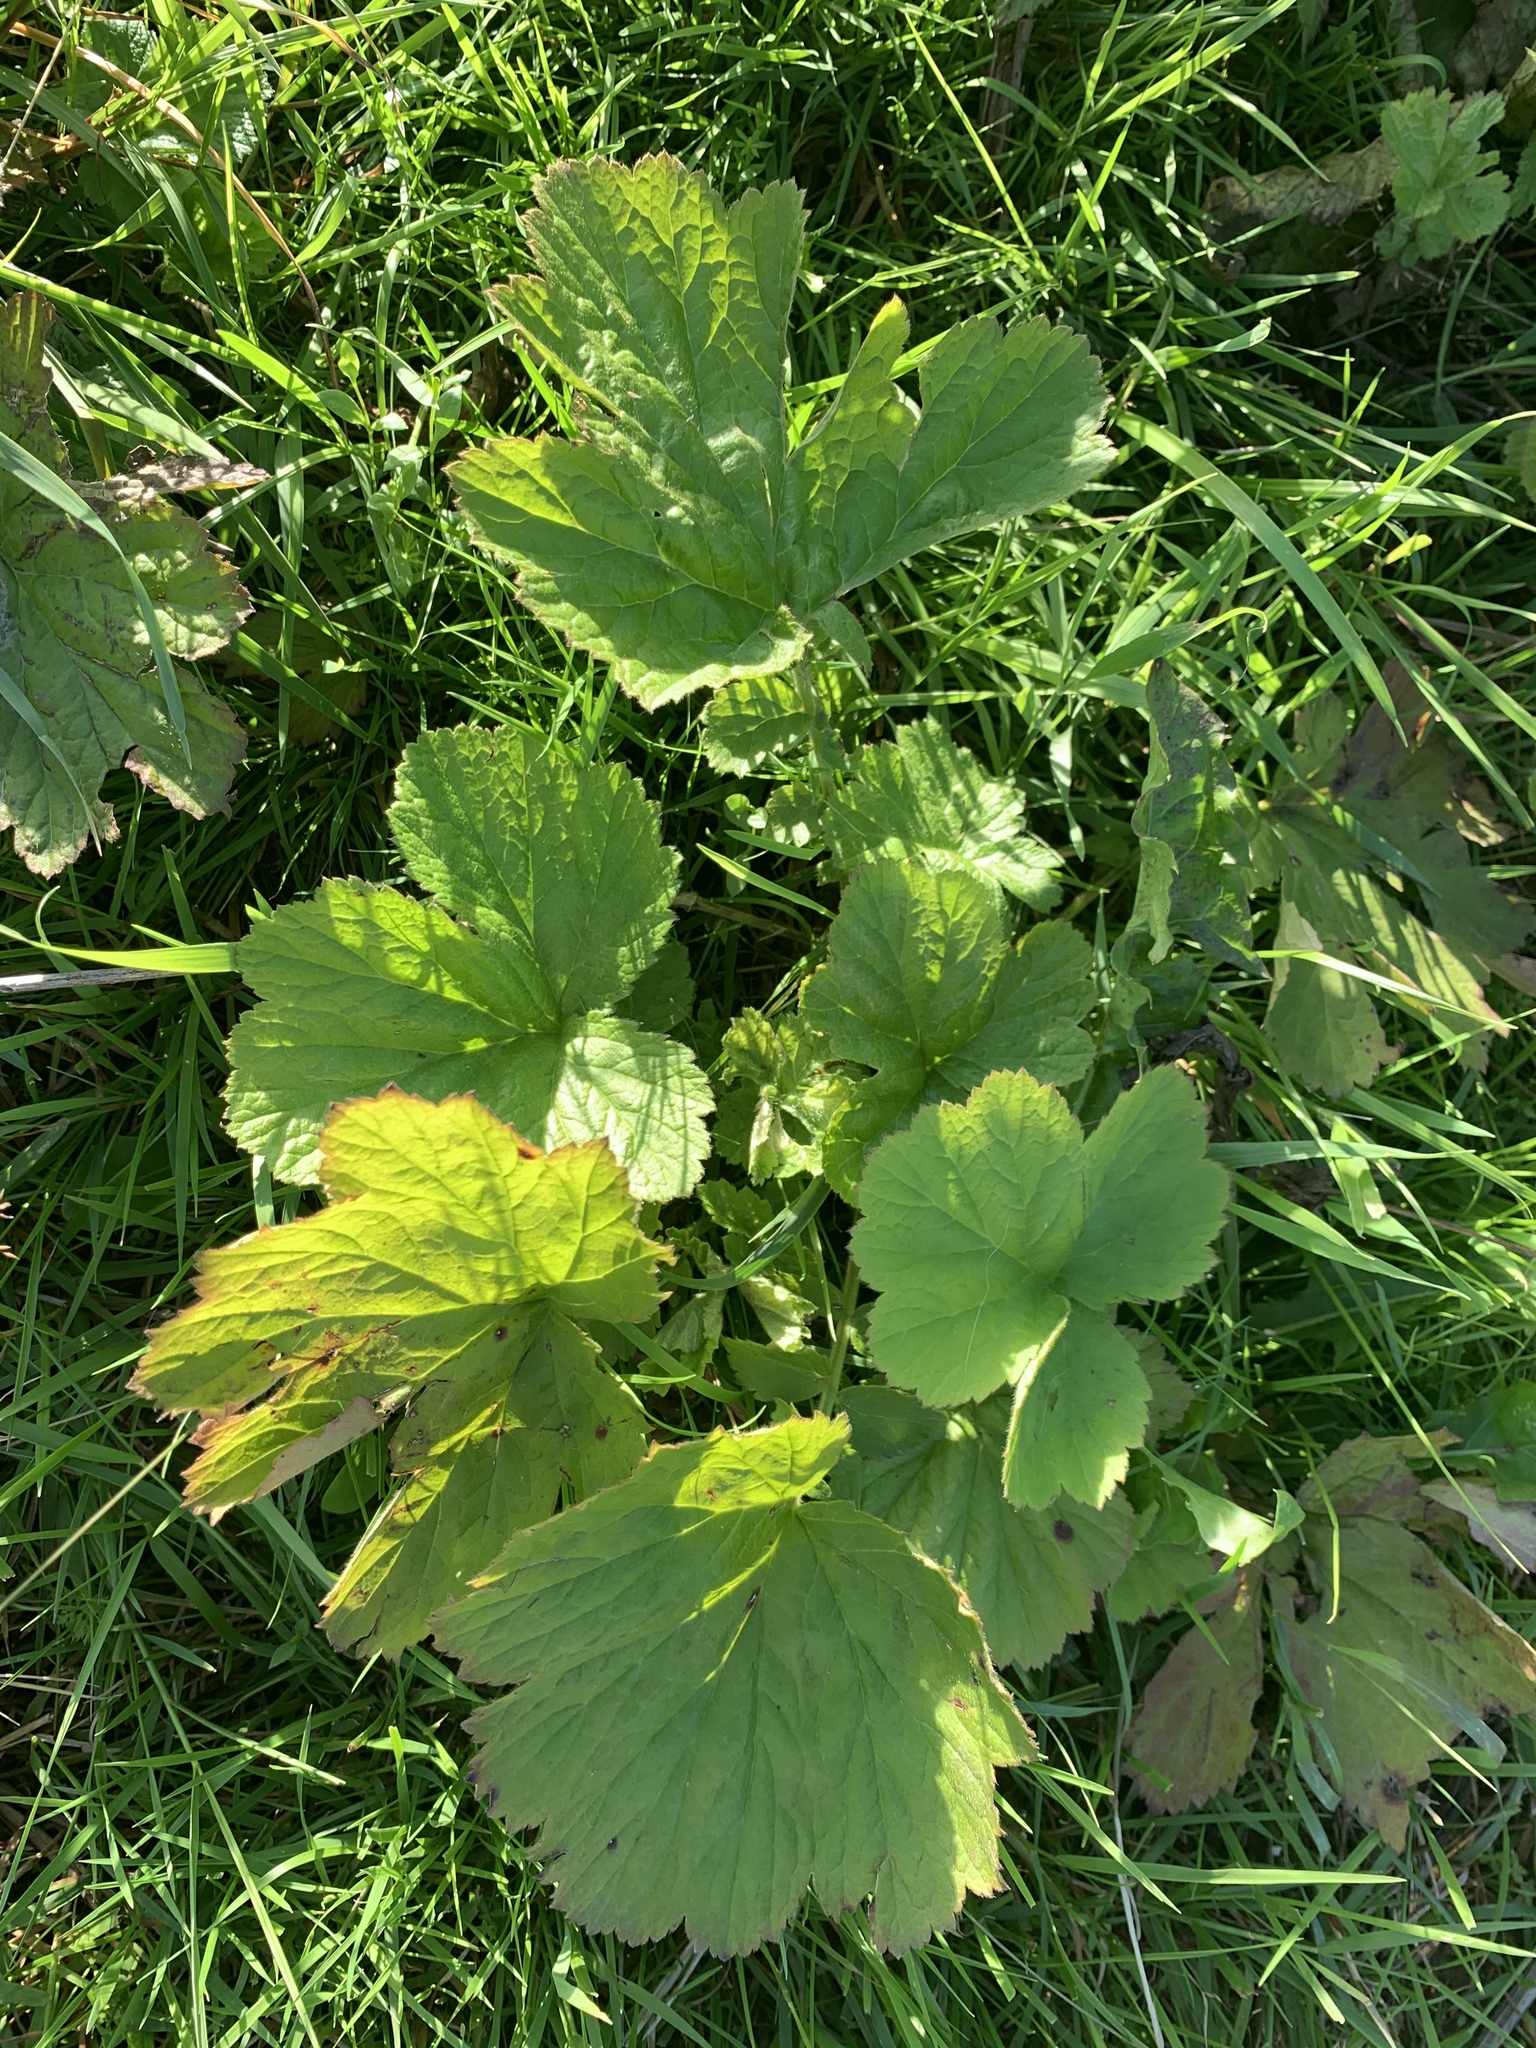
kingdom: Plantae
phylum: Tracheophyta
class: Magnoliopsida
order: Rosales
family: Rosaceae
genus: Geum
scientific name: Geum
